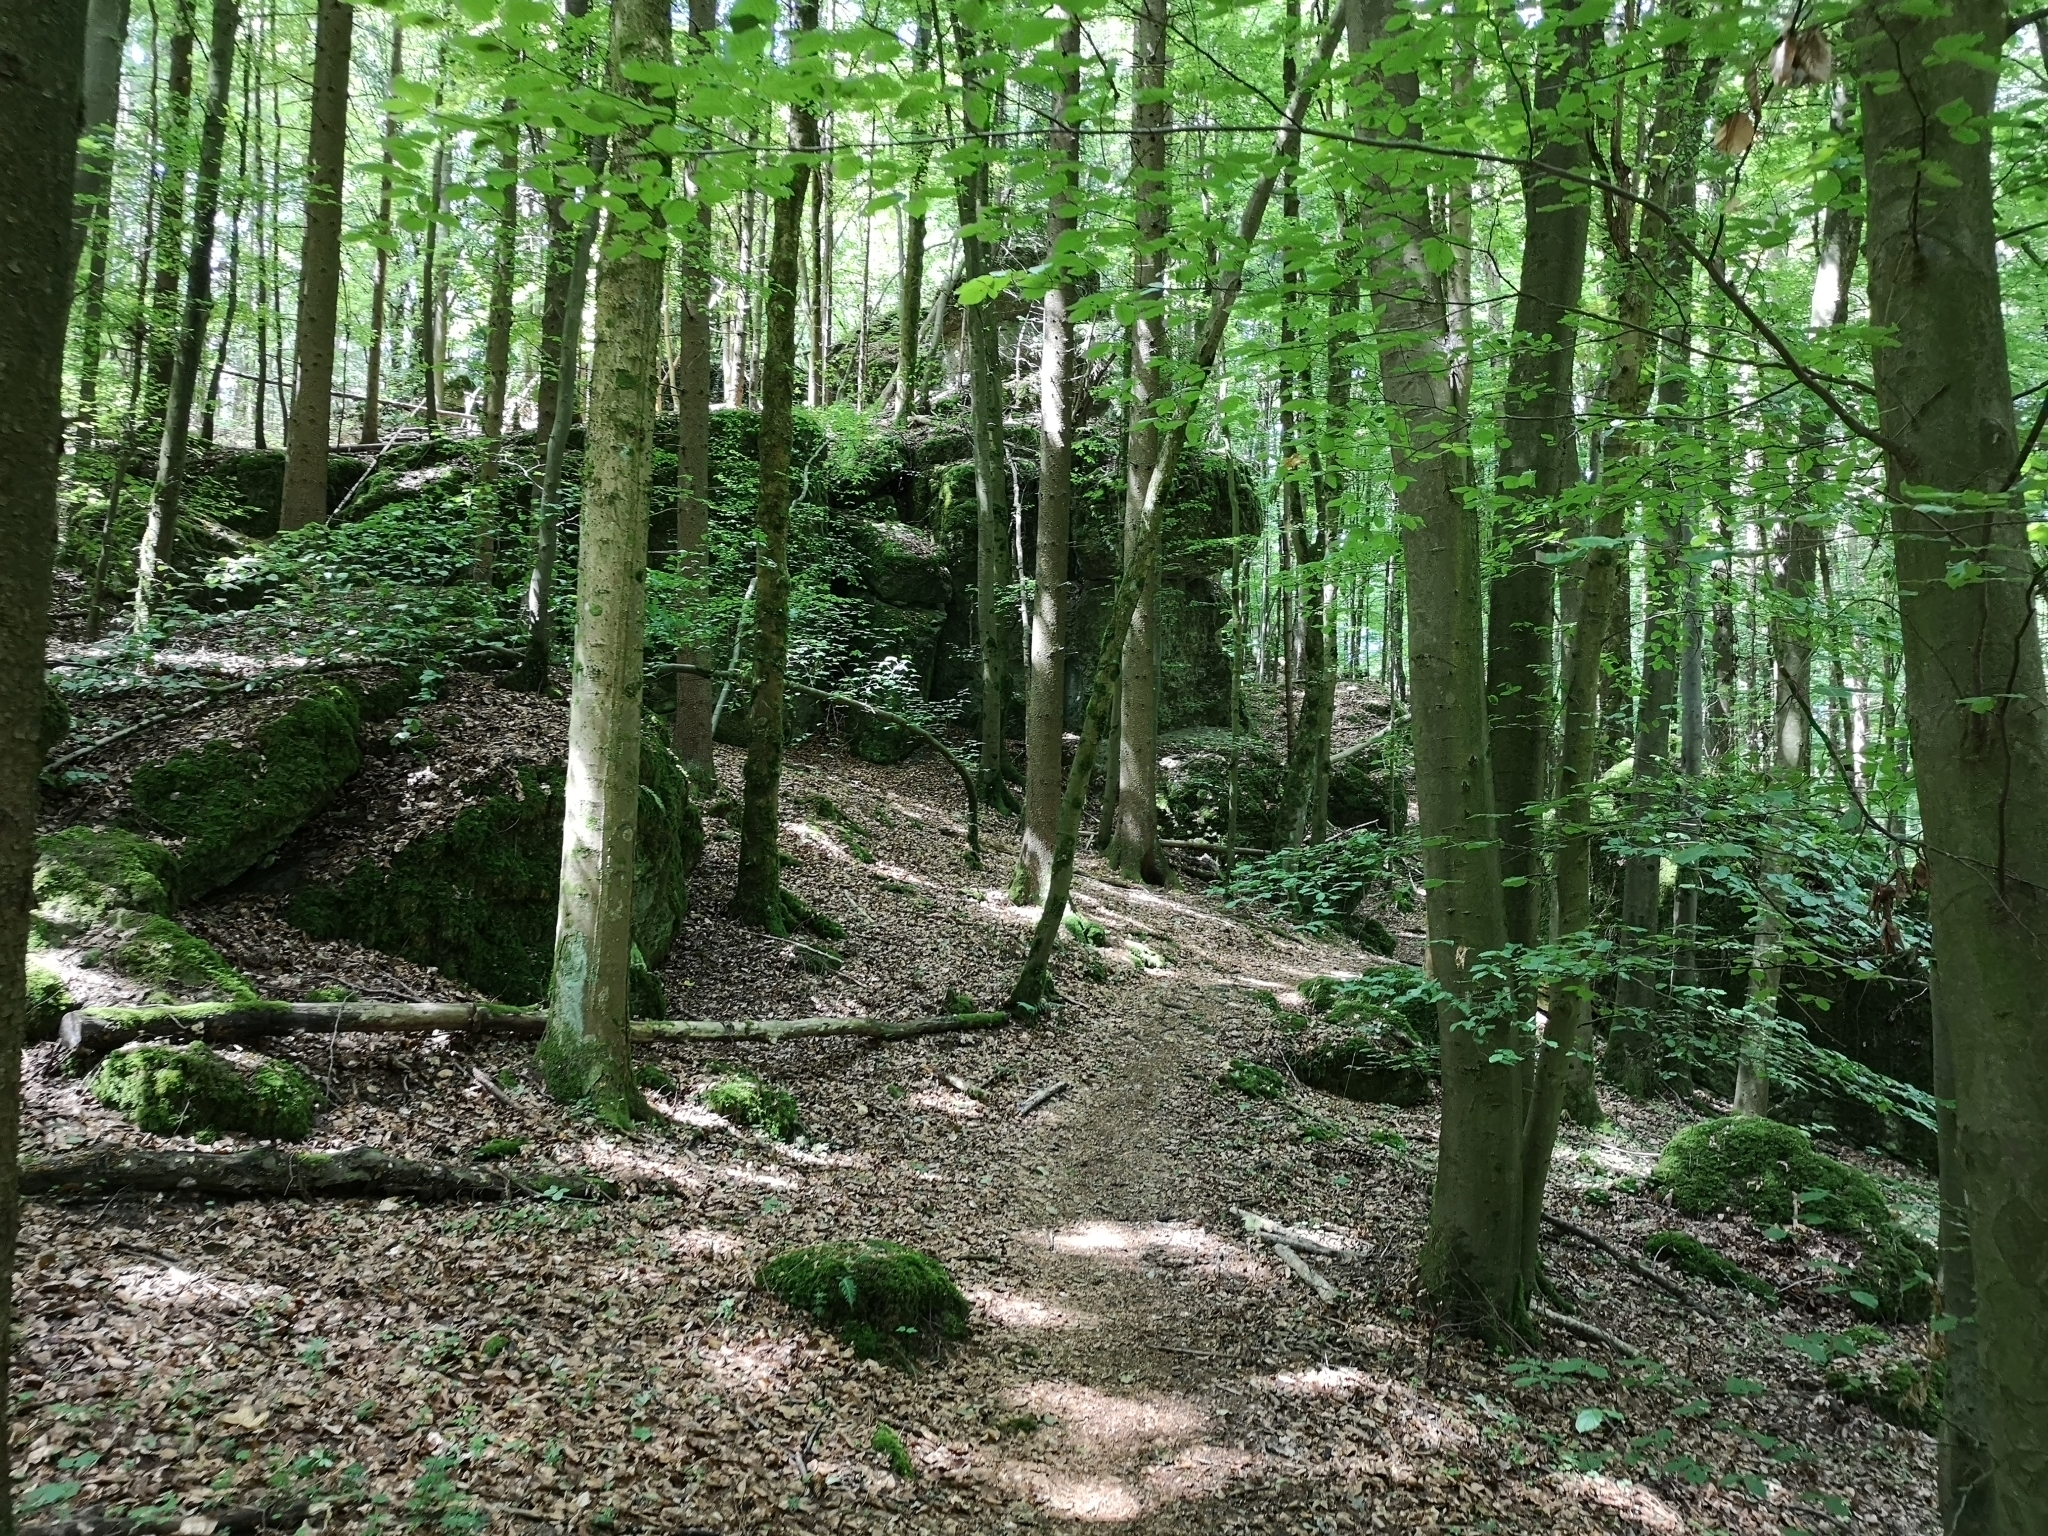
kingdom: Plantae
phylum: Tracheophyta
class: Magnoliopsida
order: Fagales
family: Fagaceae
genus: Fagus
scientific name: Fagus sylvatica
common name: Beech
